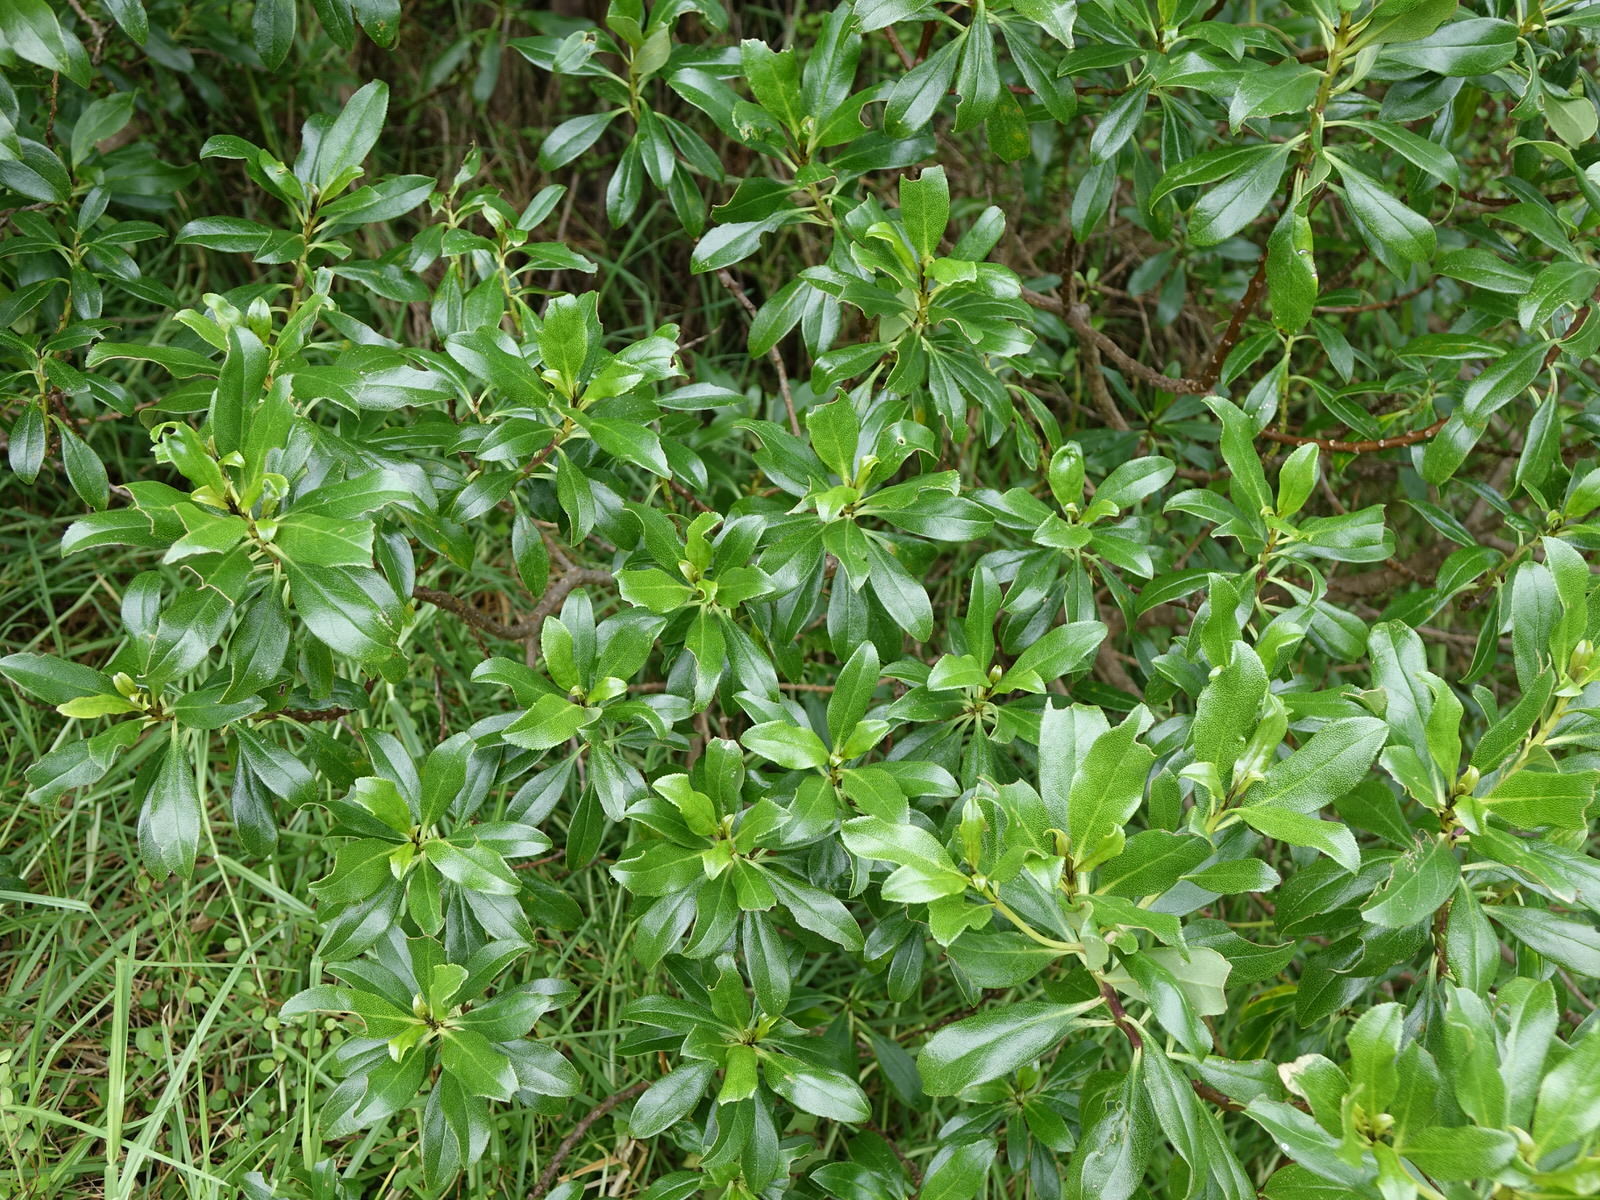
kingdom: Plantae
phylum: Tracheophyta
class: Magnoliopsida
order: Lamiales
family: Scrophulariaceae
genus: Myoporum
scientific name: Myoporum laetum
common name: Ngaio tree
